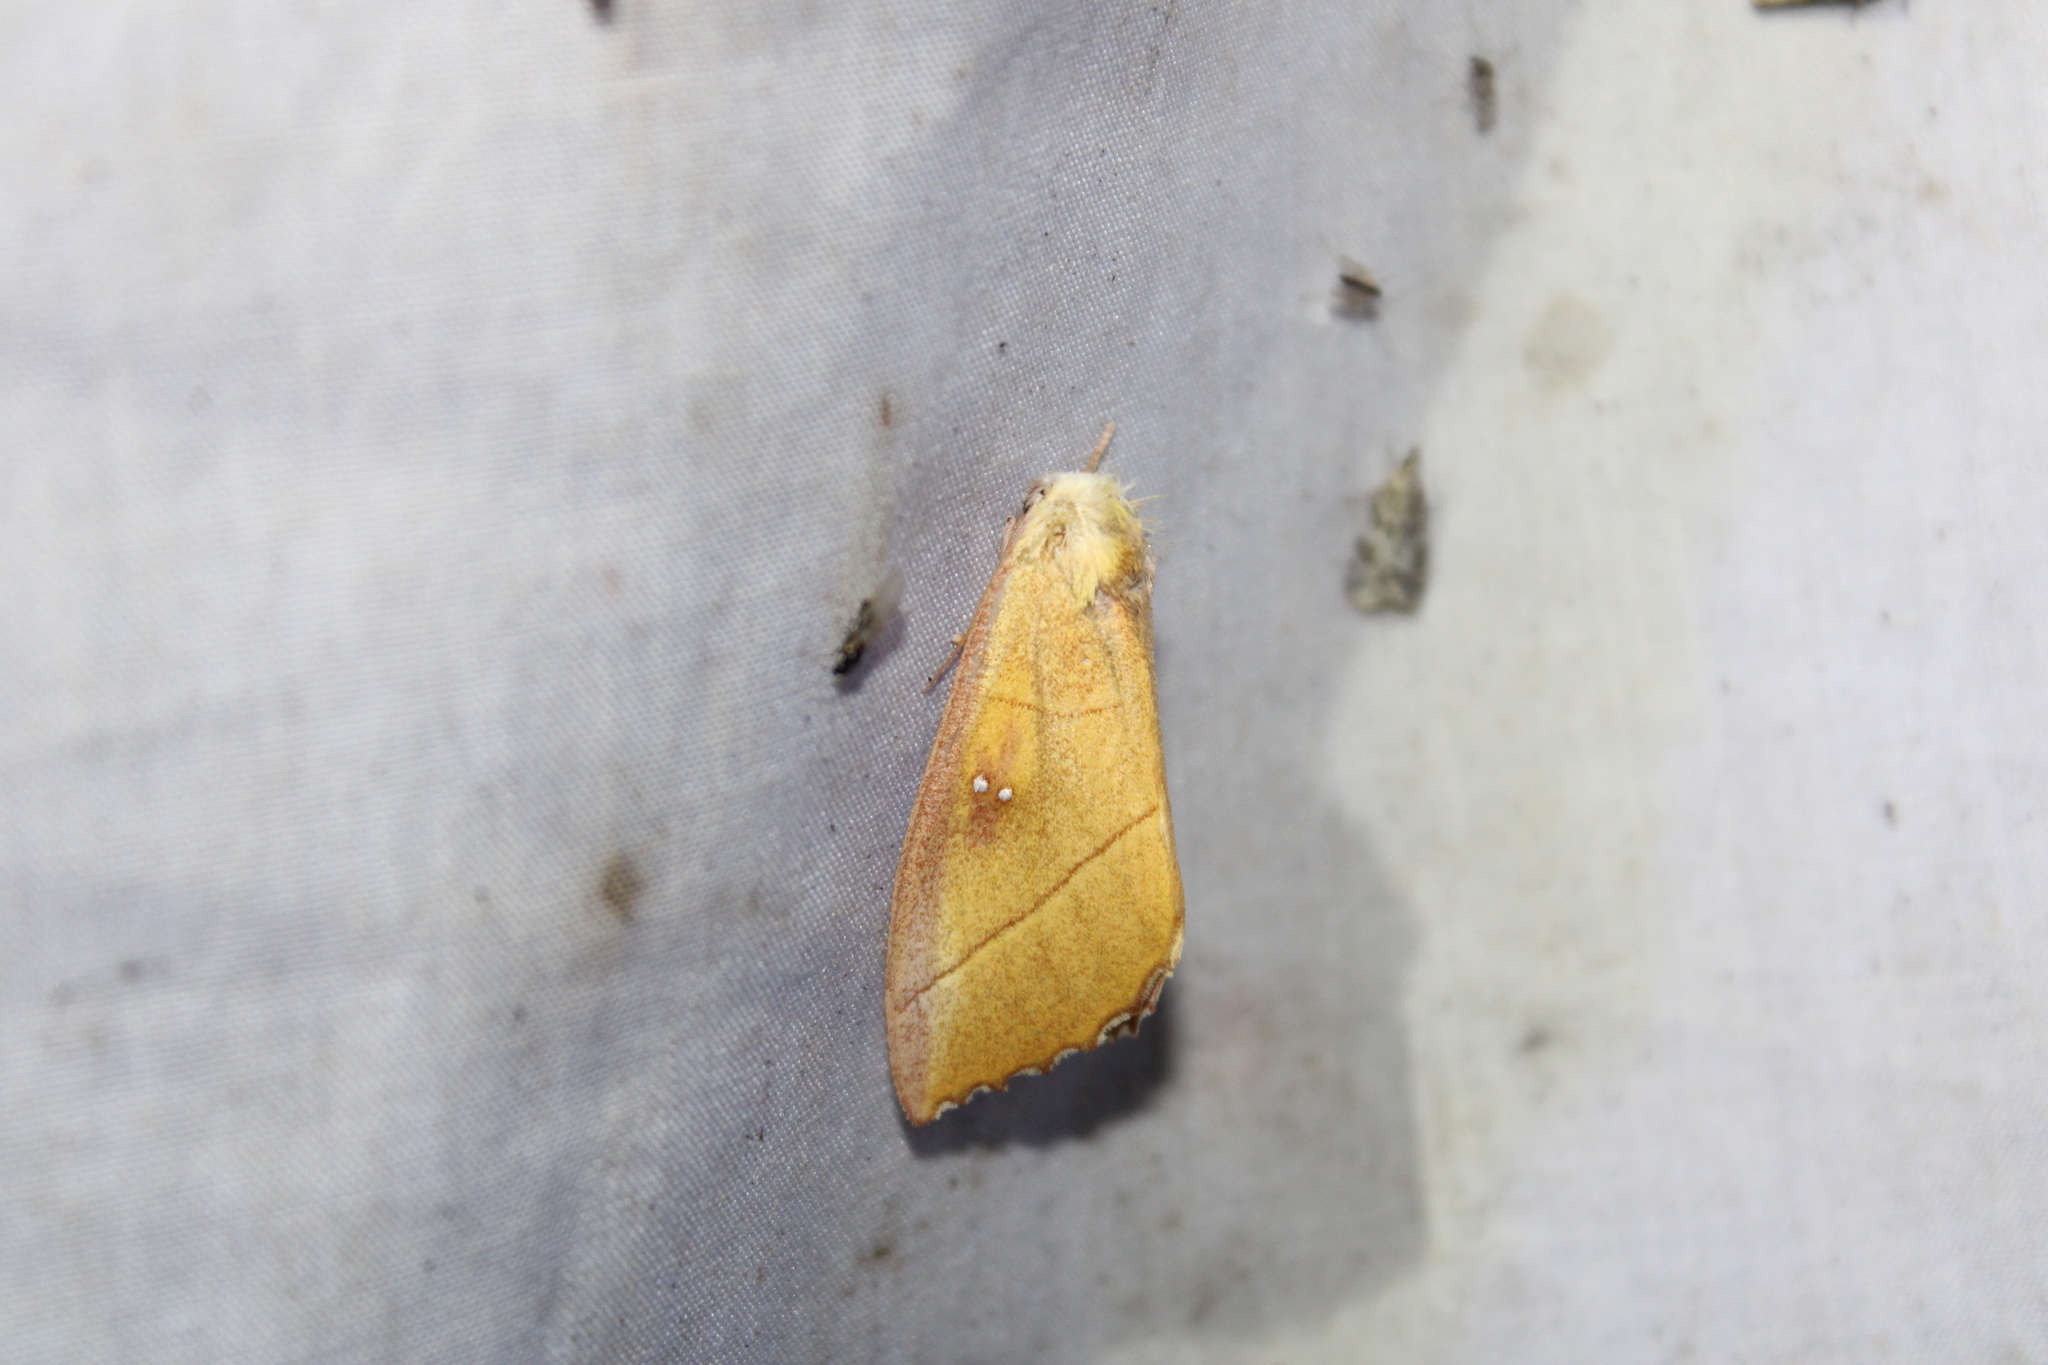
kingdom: Animalia
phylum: Arthropoda
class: Insecta
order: Lepidoptera
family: Notodontidae
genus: Nadata
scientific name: Nadata gibbosa
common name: White-dotted prominent
